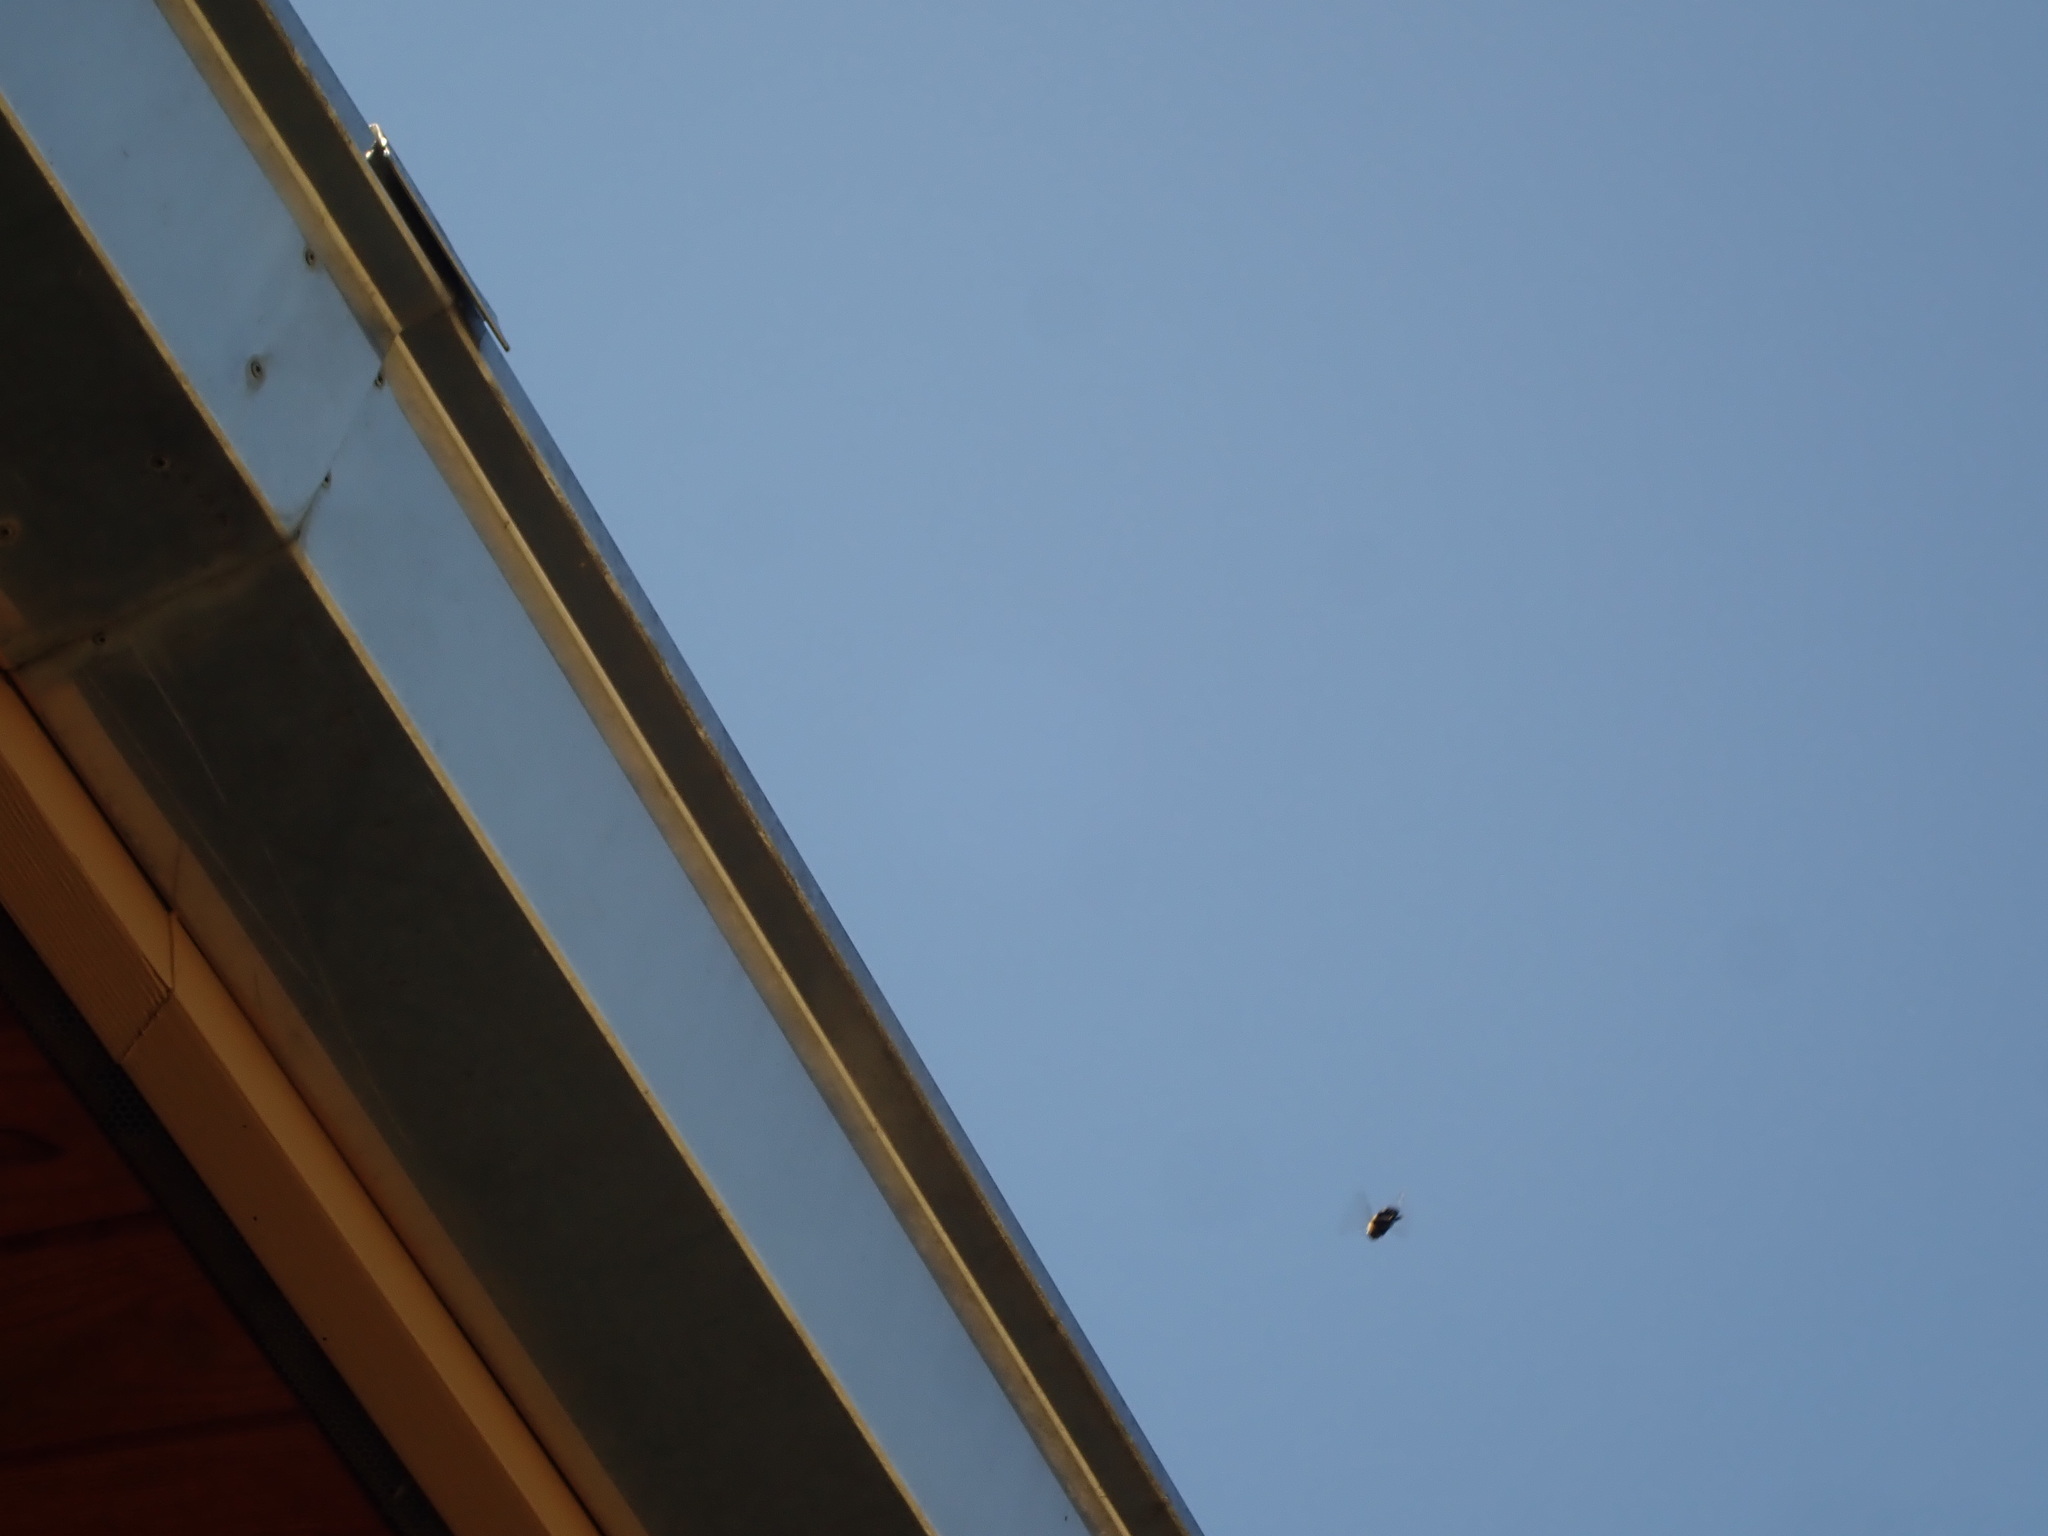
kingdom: Animalia
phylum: Arthropoda
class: Insecta
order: Hymenoptera
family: Apidae
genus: Xylocopa
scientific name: Xylocopa virginica
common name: Carpenter bee
